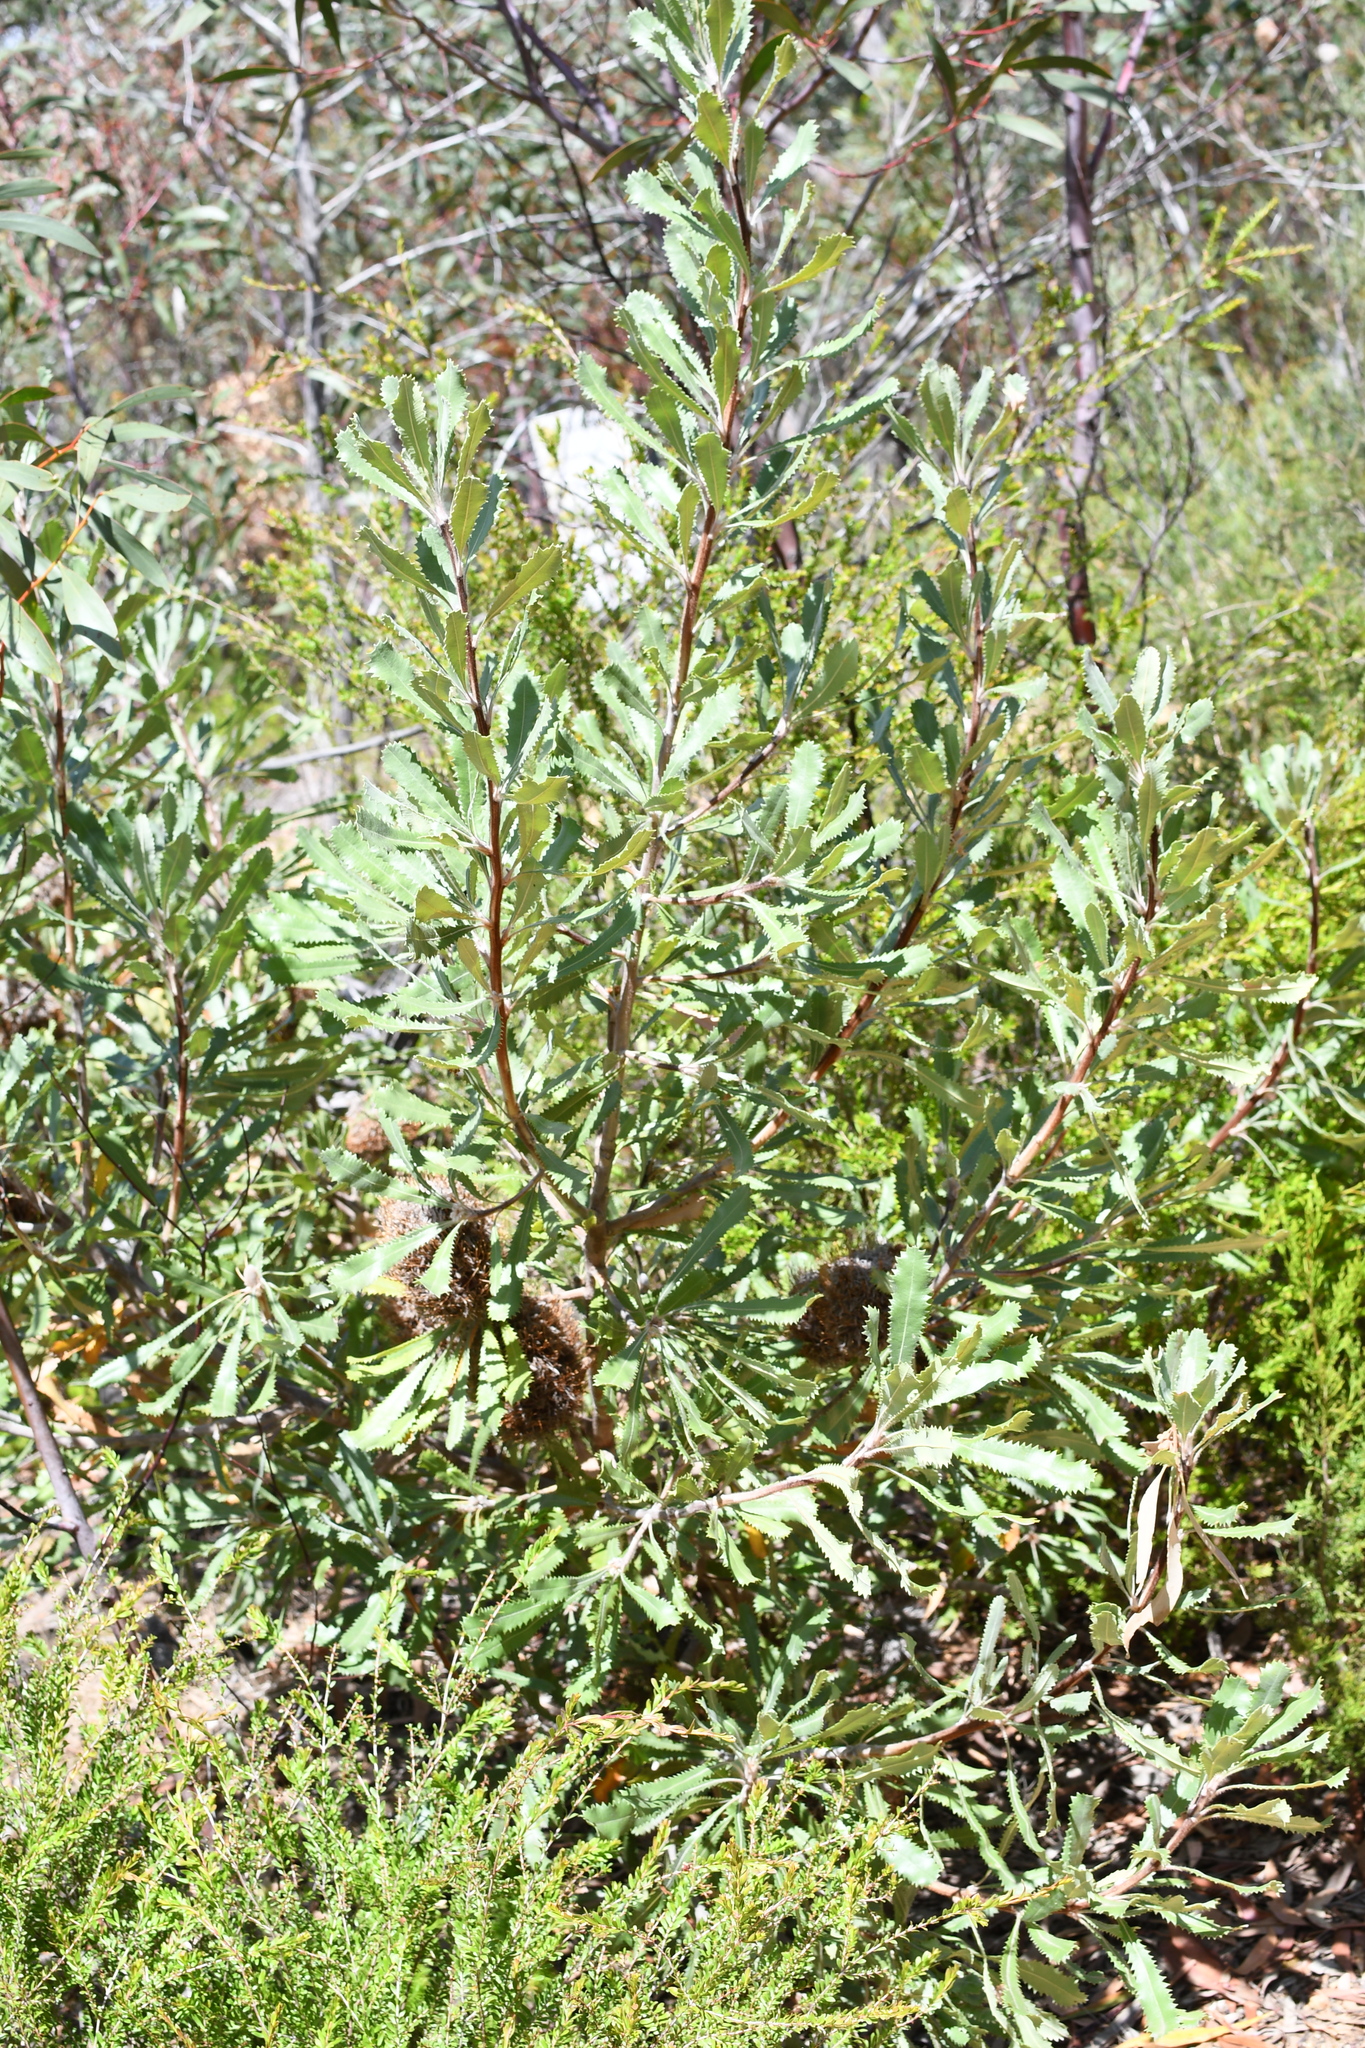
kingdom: Plantae
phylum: Tracheophyta
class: Magnoliopsida
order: Proteales
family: Proteaceae
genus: Banksia
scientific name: Banksia ornata
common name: Desert banksia
